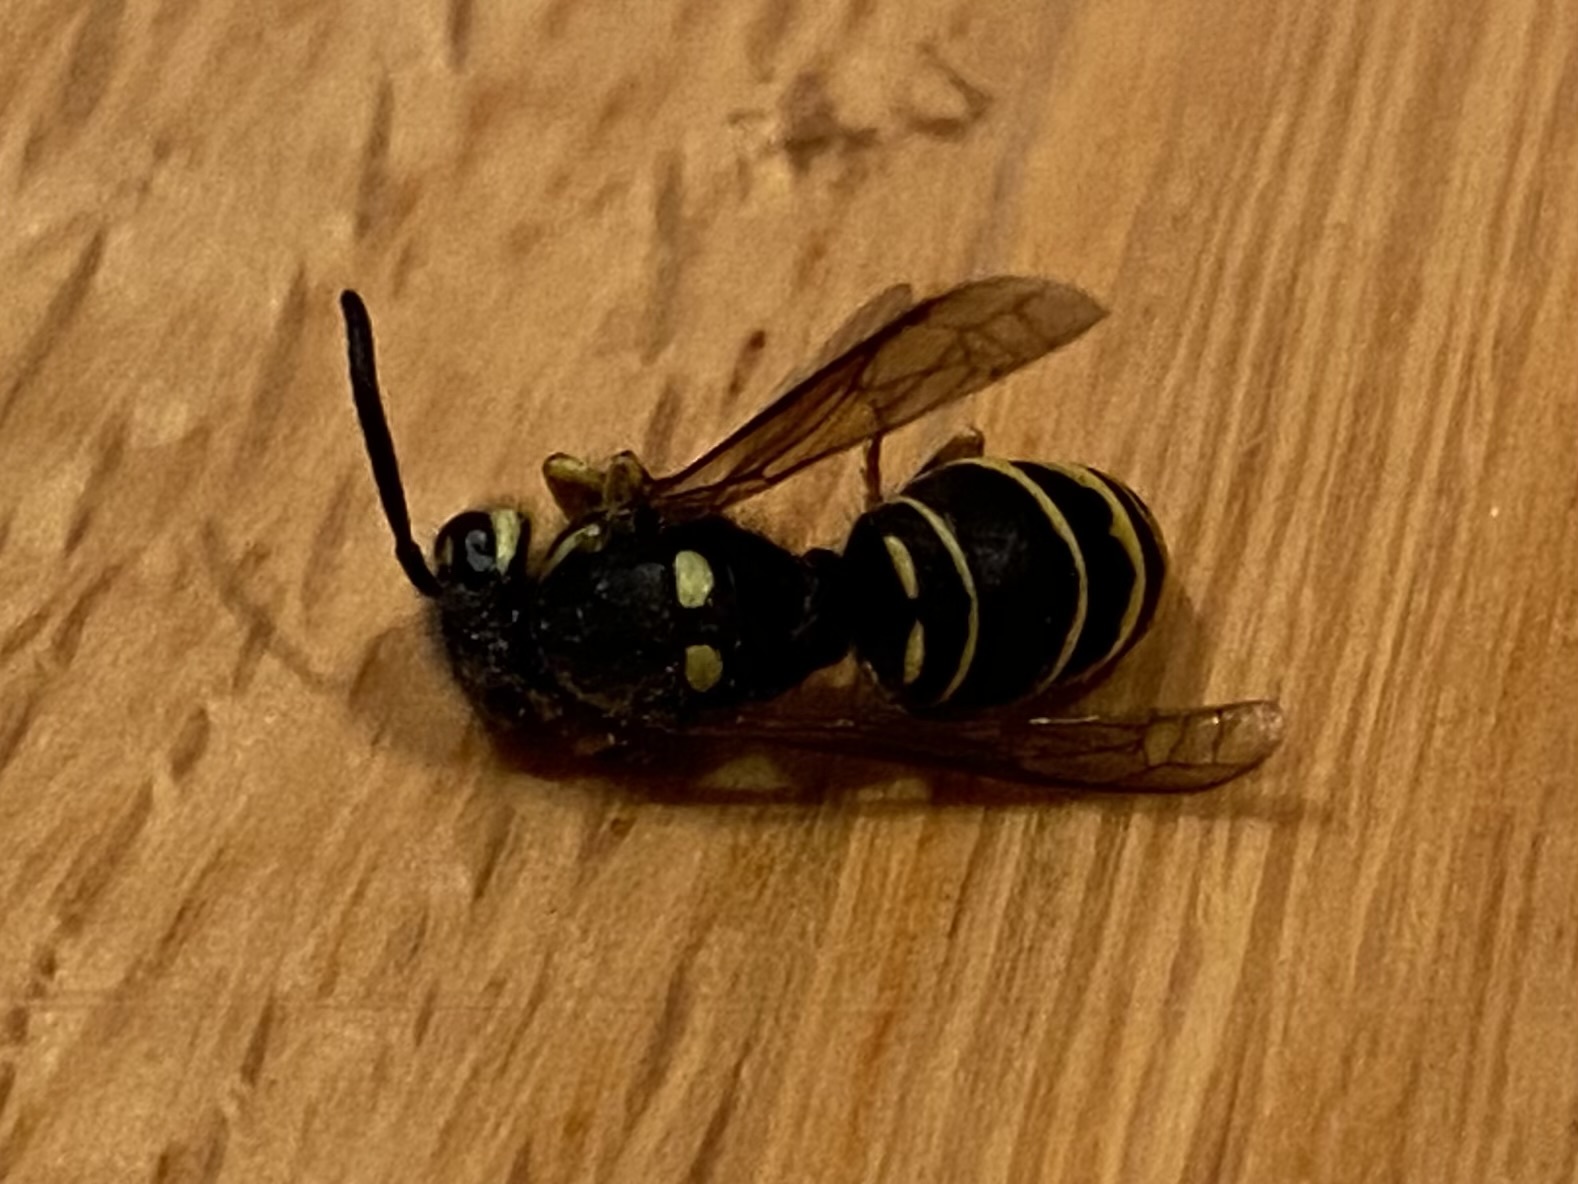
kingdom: Animalia
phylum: Arthropoda
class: Insecta
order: Hymenoptera
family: Vespidae
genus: Vespula
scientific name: Vespula vidua
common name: Widow yellowjacket
